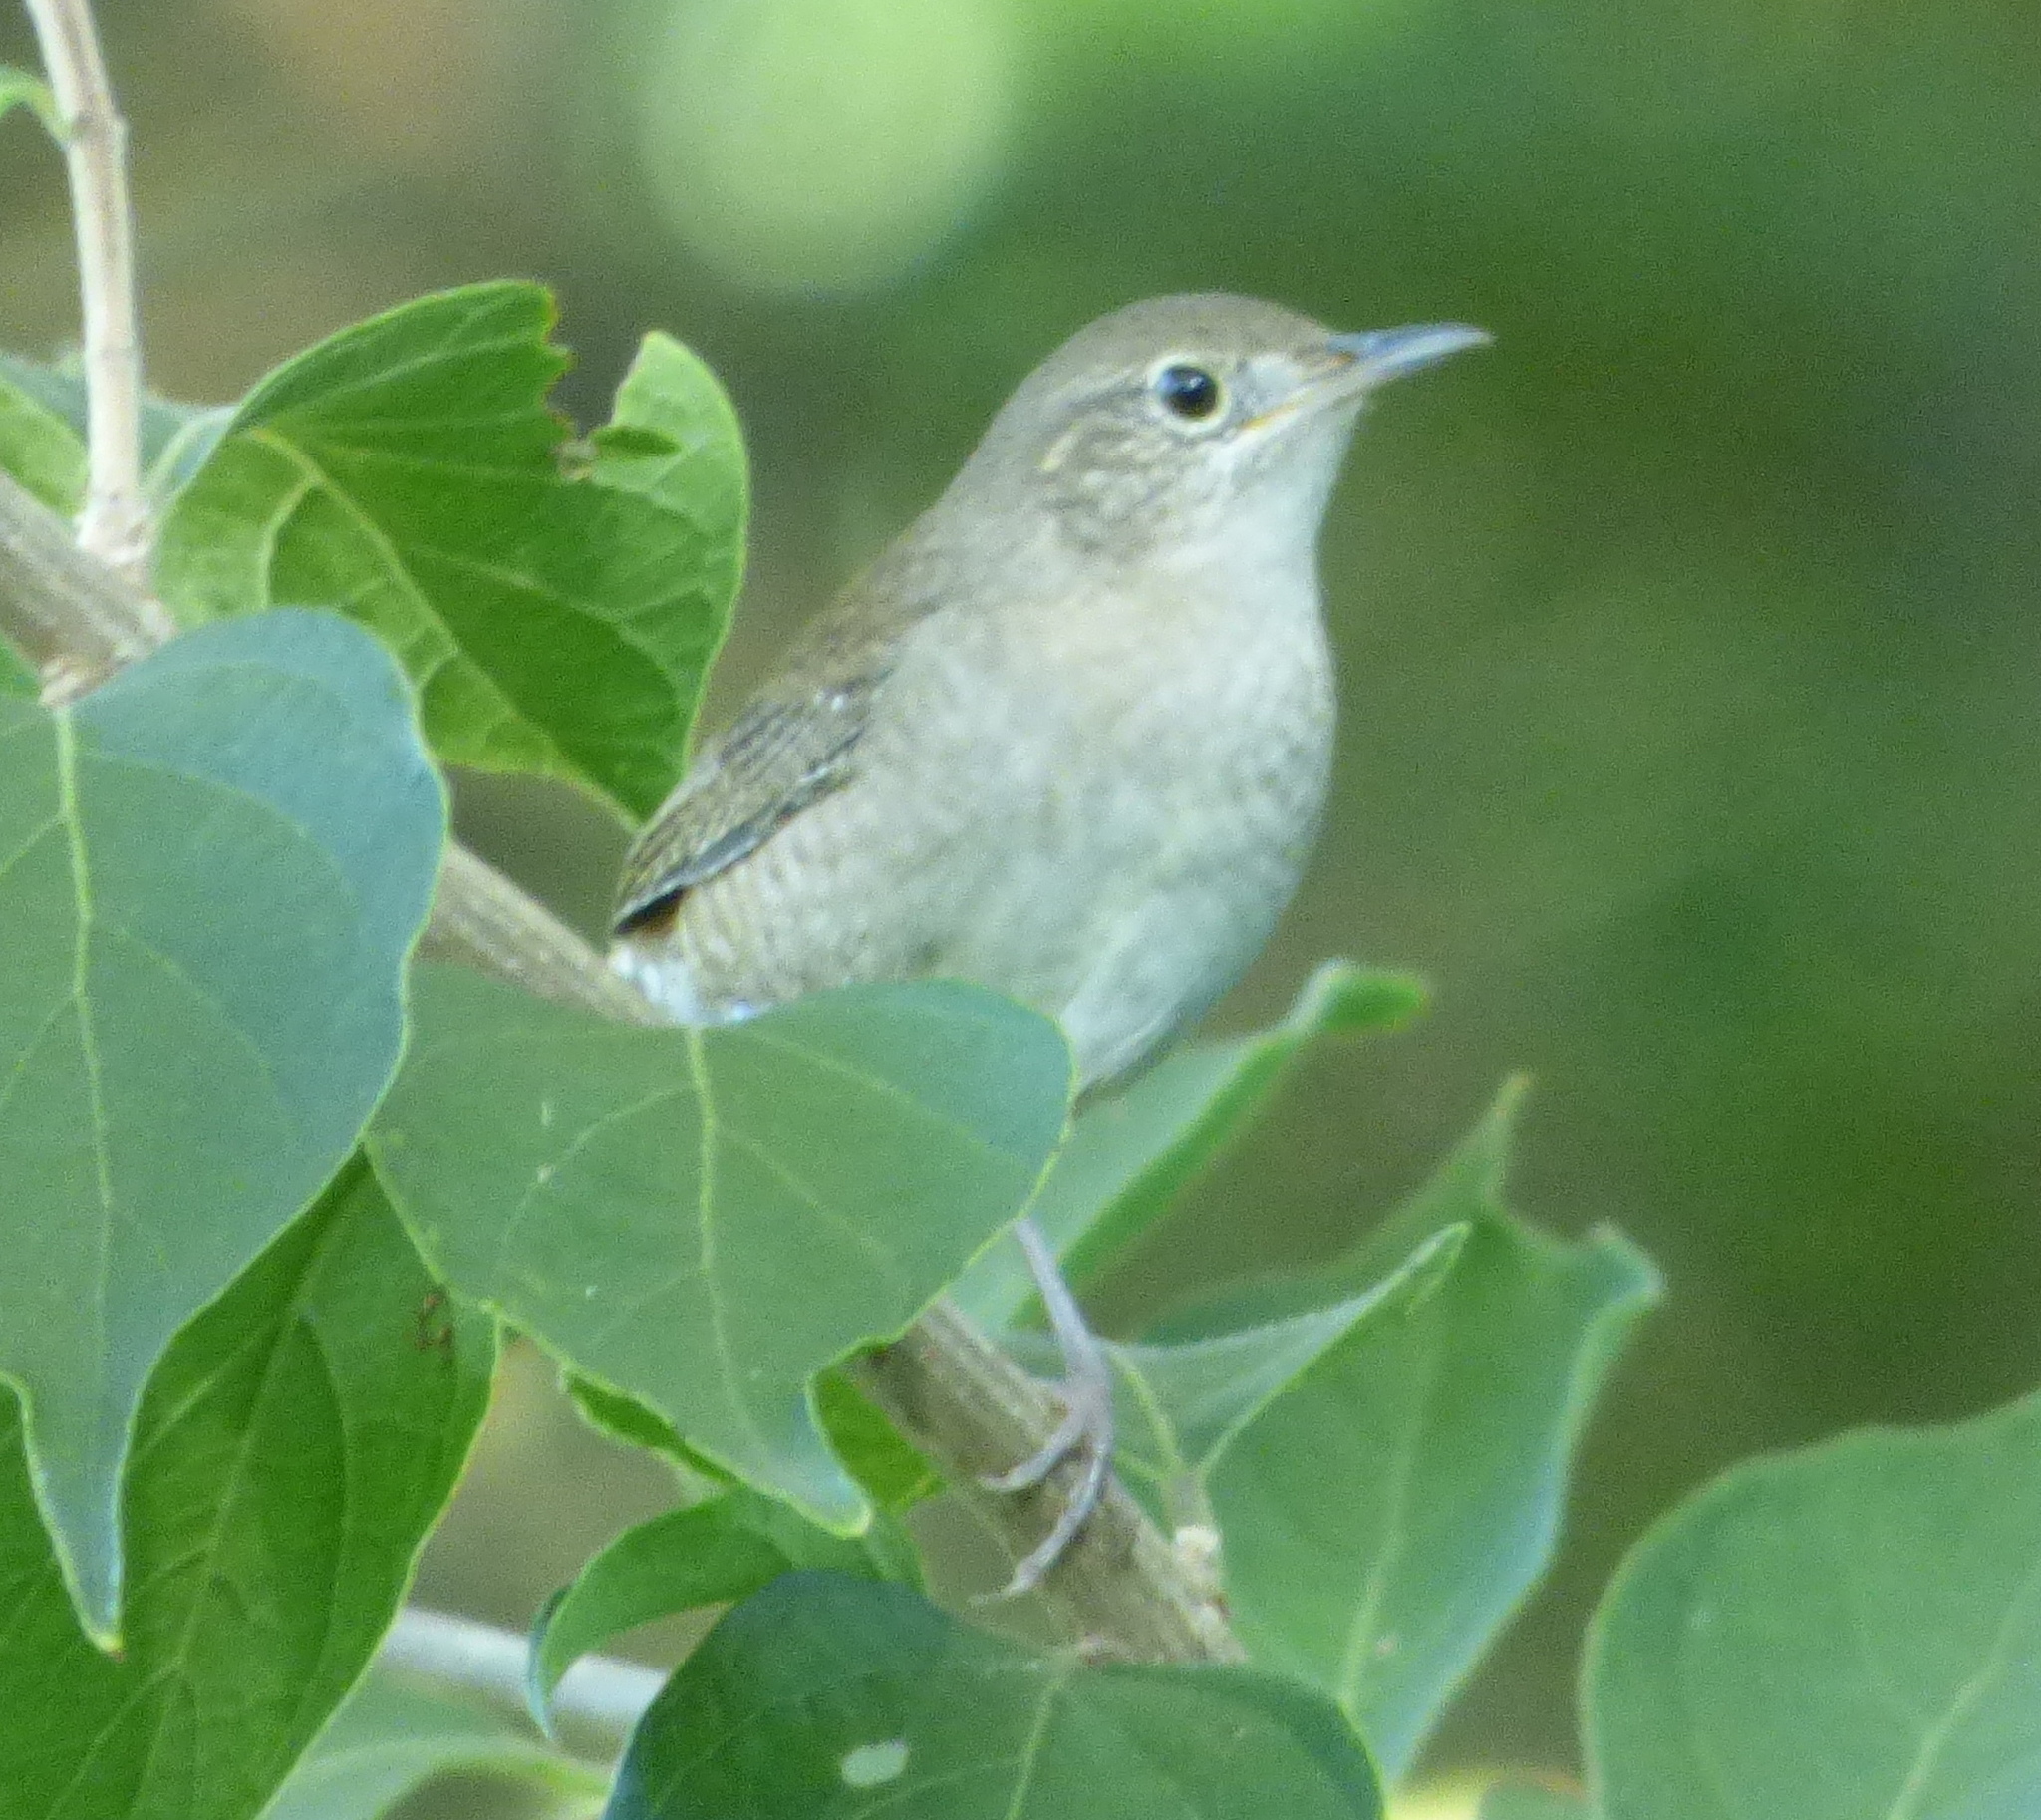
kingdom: Animalia
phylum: Chordata
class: Aves
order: Passeriformes
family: Troglodytidae
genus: Troglodytes
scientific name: Troglodytes aedon
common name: House wren
